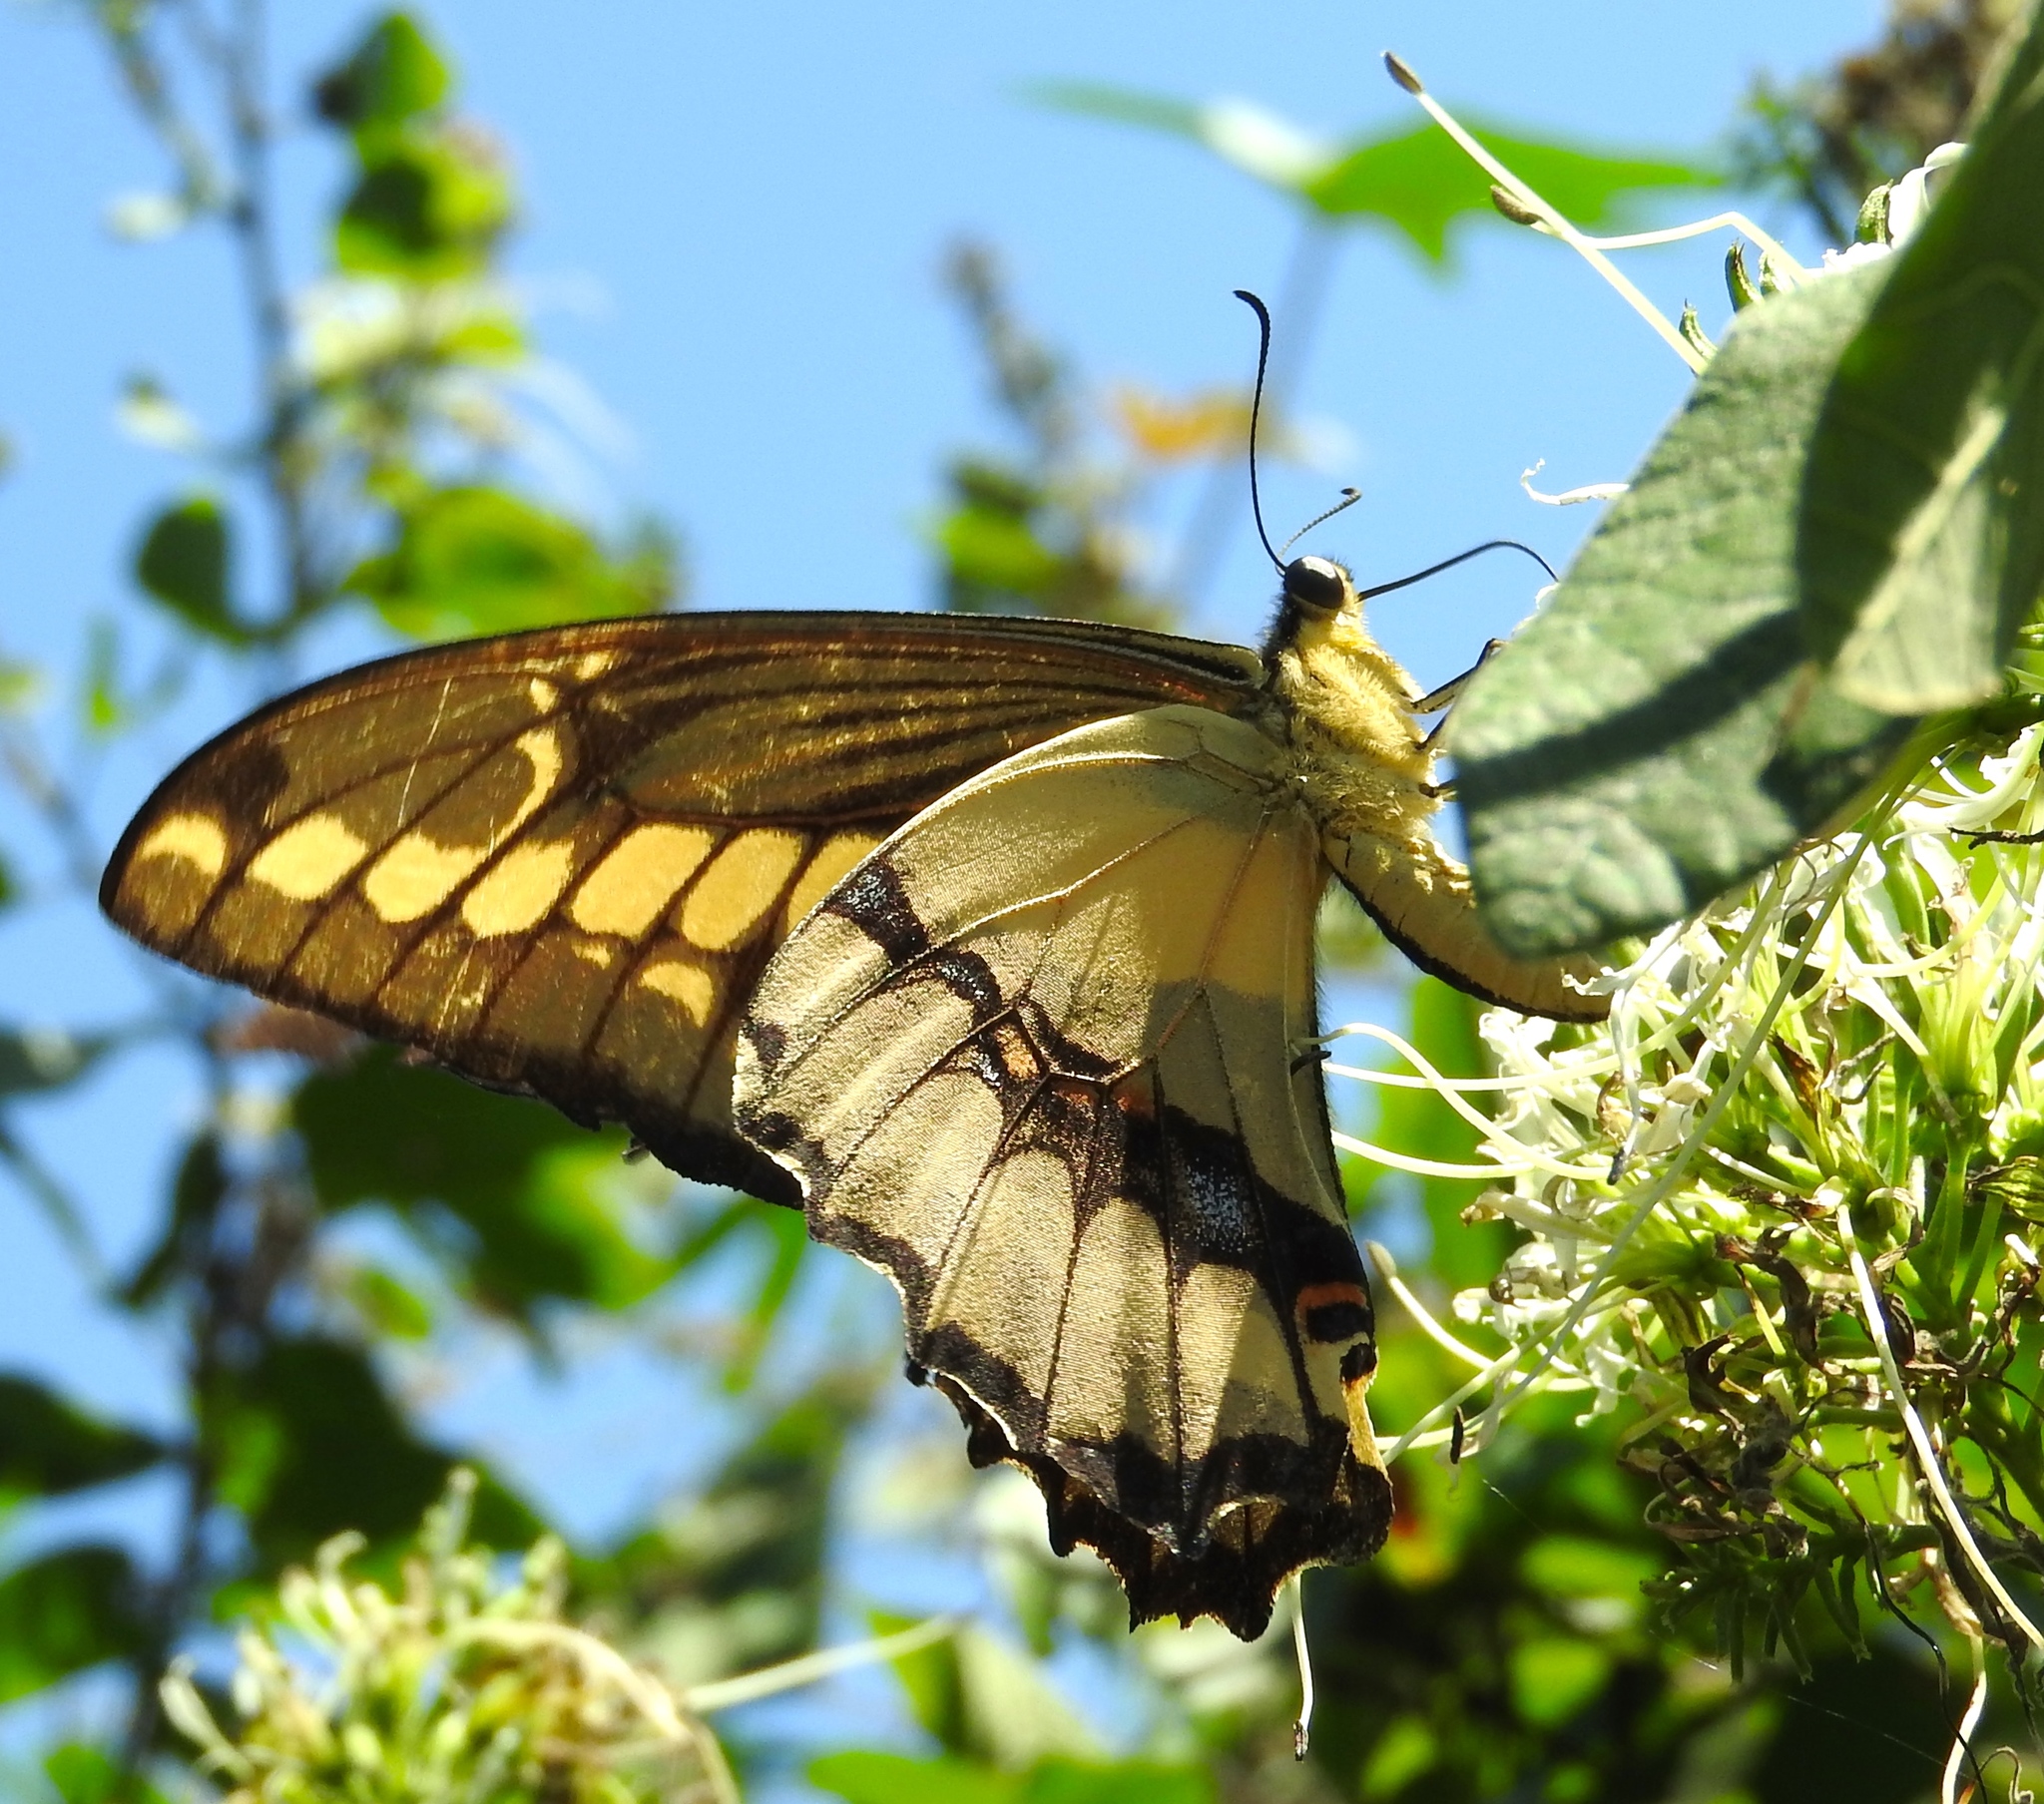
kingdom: Animalia
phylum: Arthropoda
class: Insecta
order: Lepidoptera
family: Papilionidae
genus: Papilio
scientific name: Papilio thoas
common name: King swallowtail
